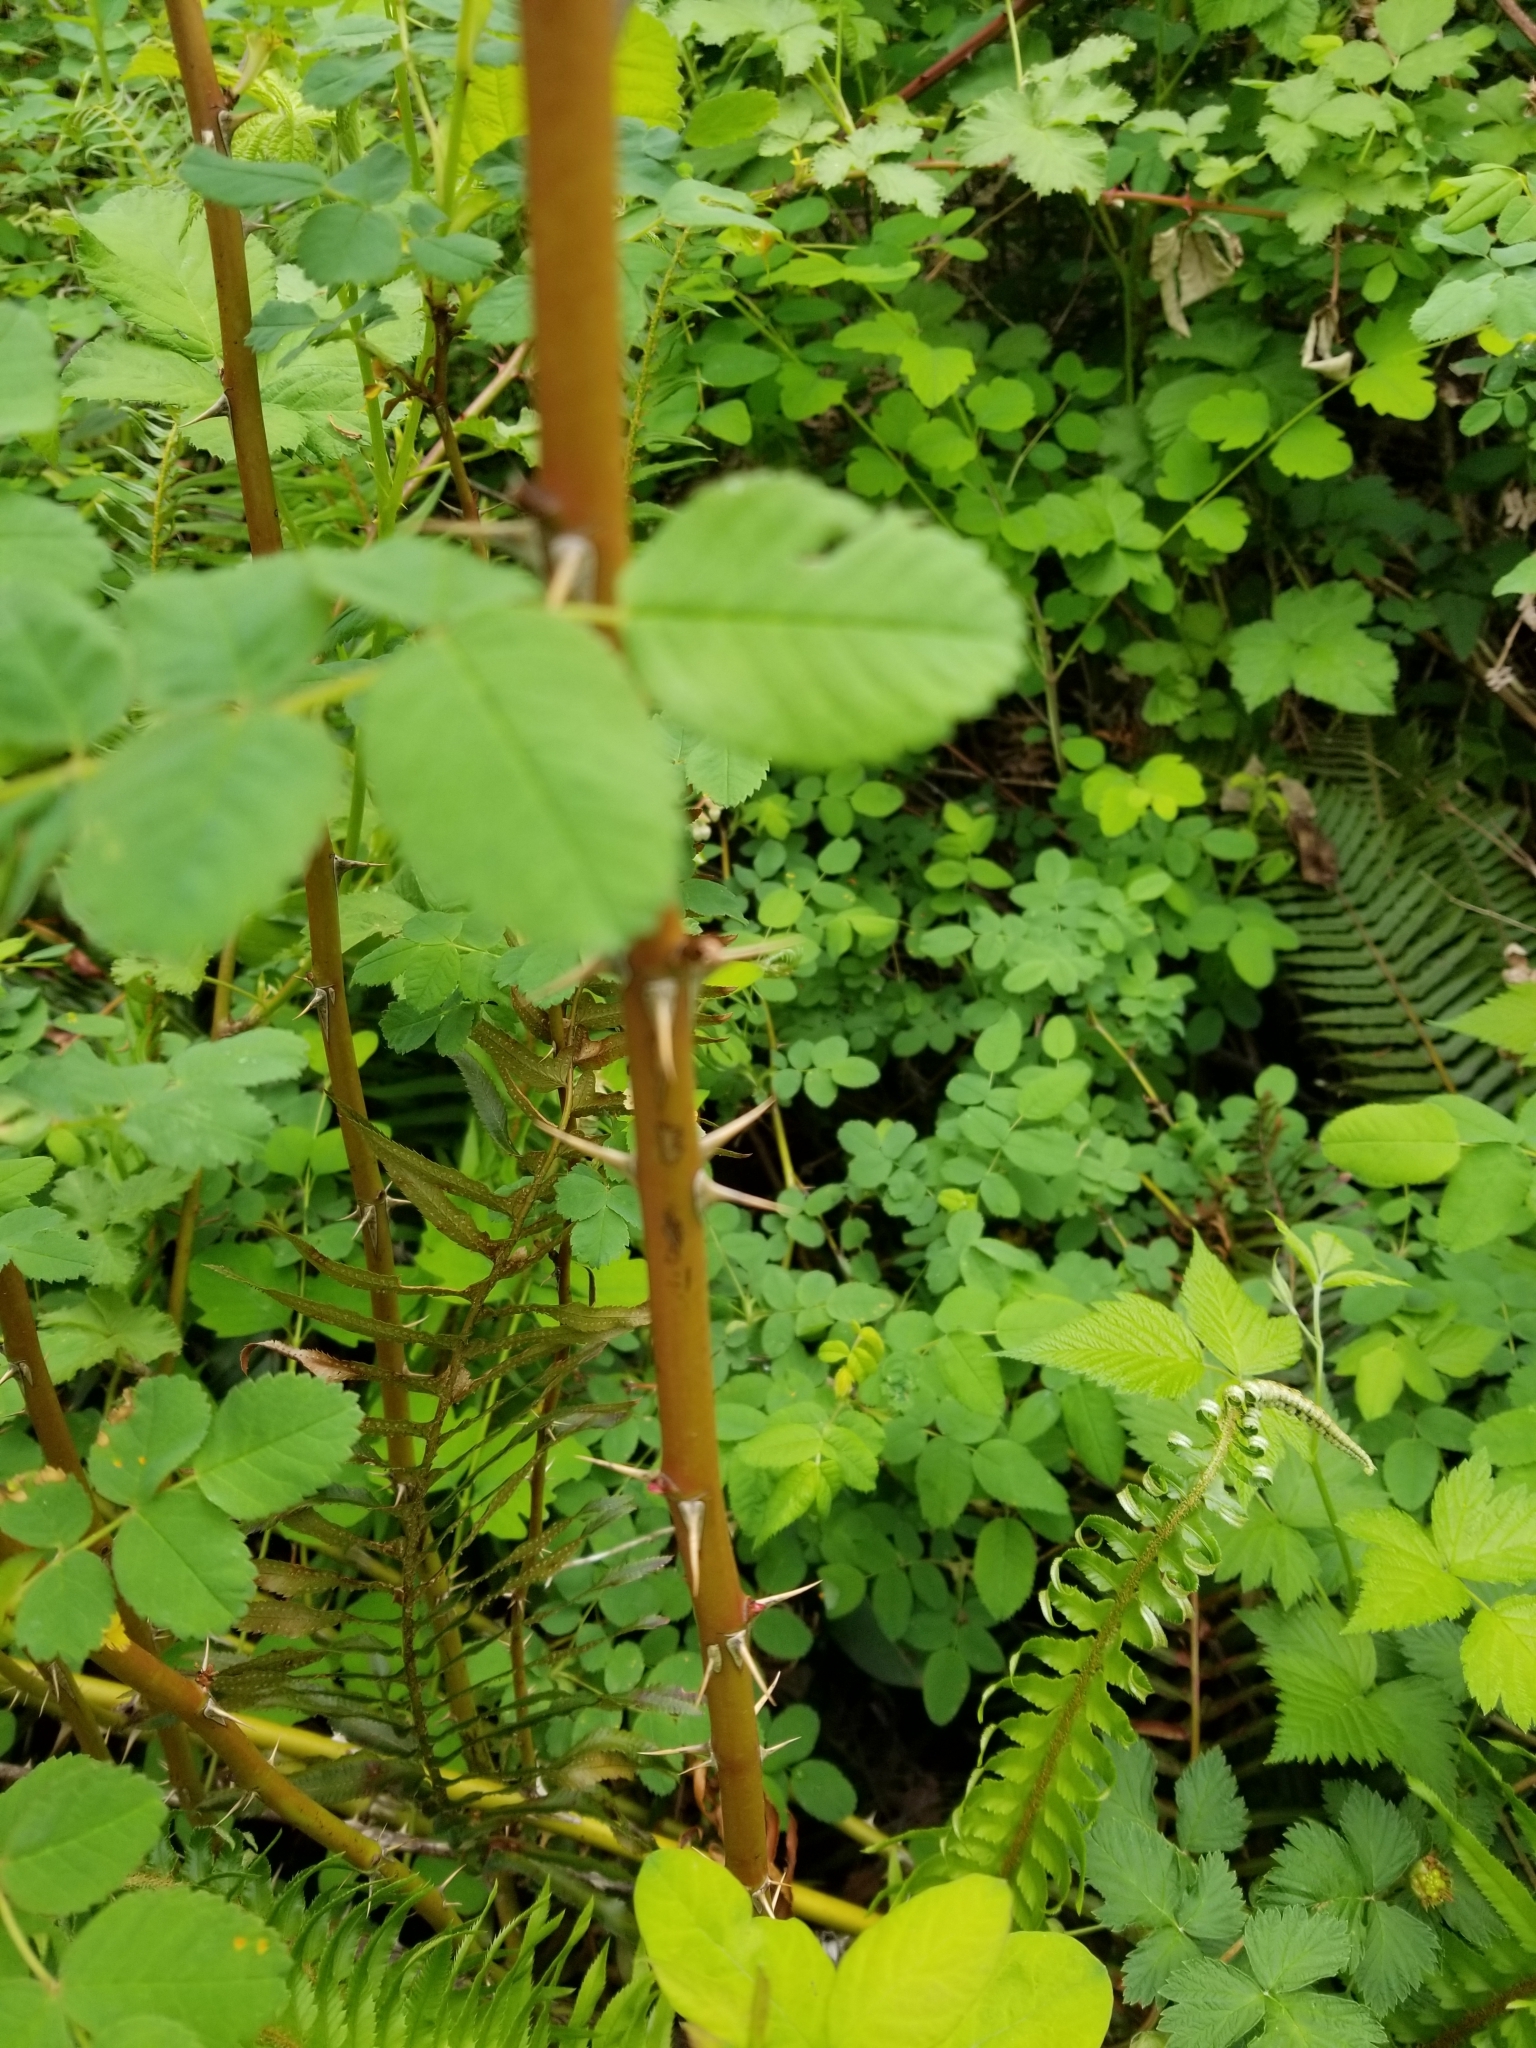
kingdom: Plantae
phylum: Tracheophyta
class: Magnoliopsida
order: Rosales
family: Rosaceae
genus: Rosa
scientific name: Rosa palustris
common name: Swamp rose
